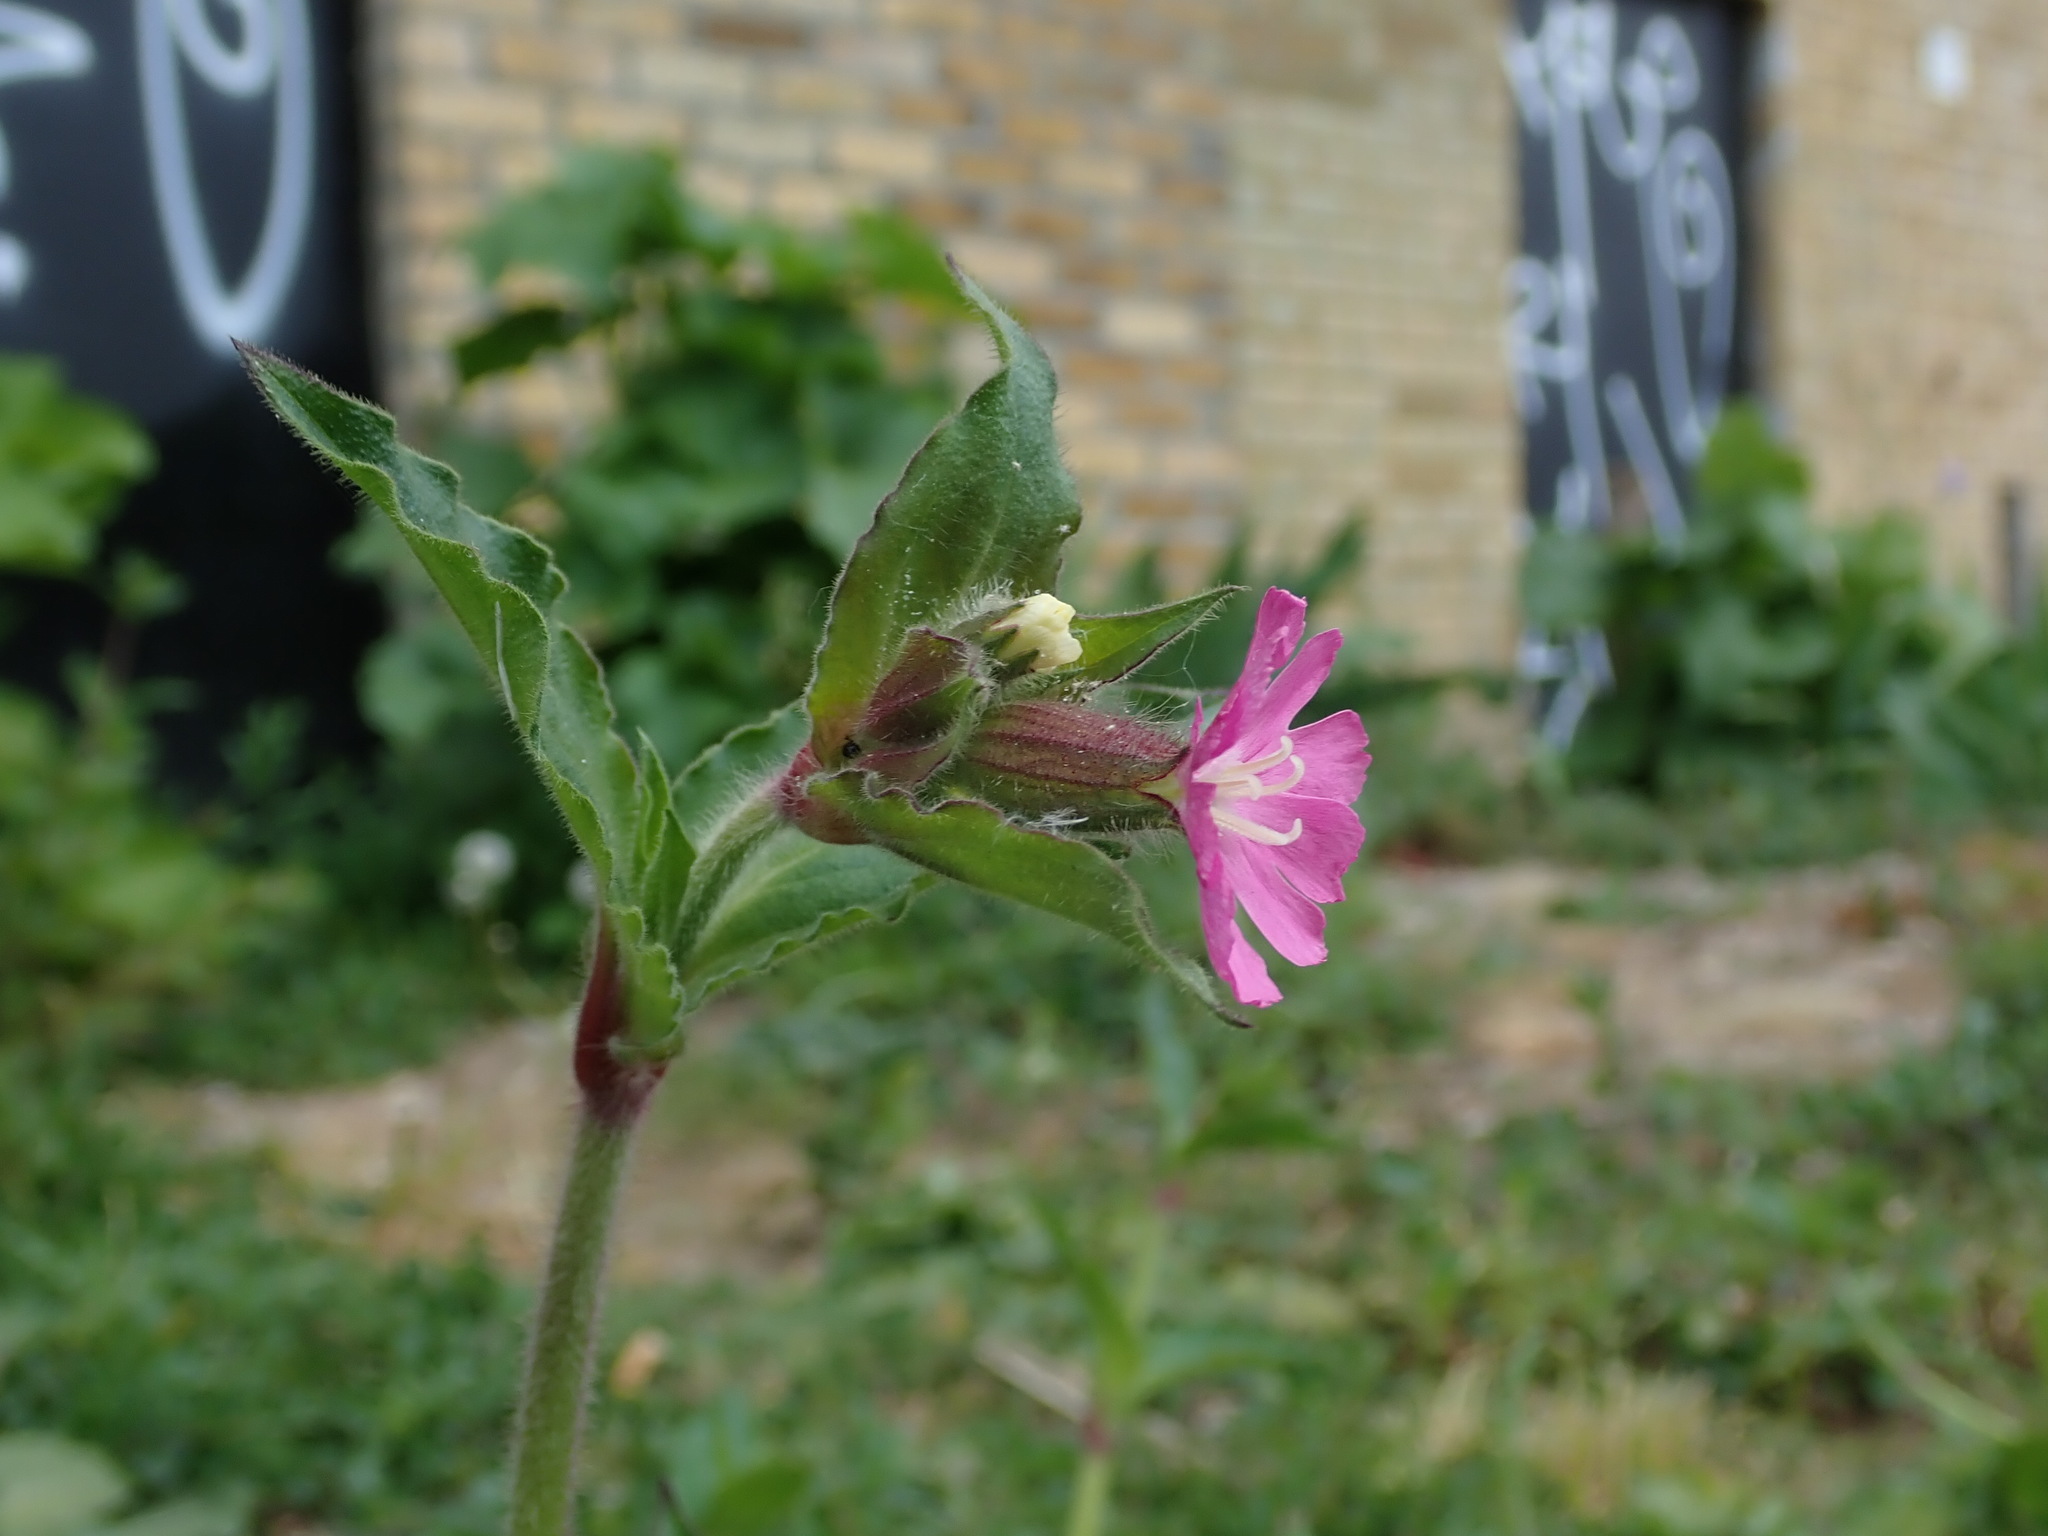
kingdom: Plantae
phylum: Tracheophyta
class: Magnoliopsida
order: Caryophyllales
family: Caryophyllaceae
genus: Silene
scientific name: Silene dioica
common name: Red campion
